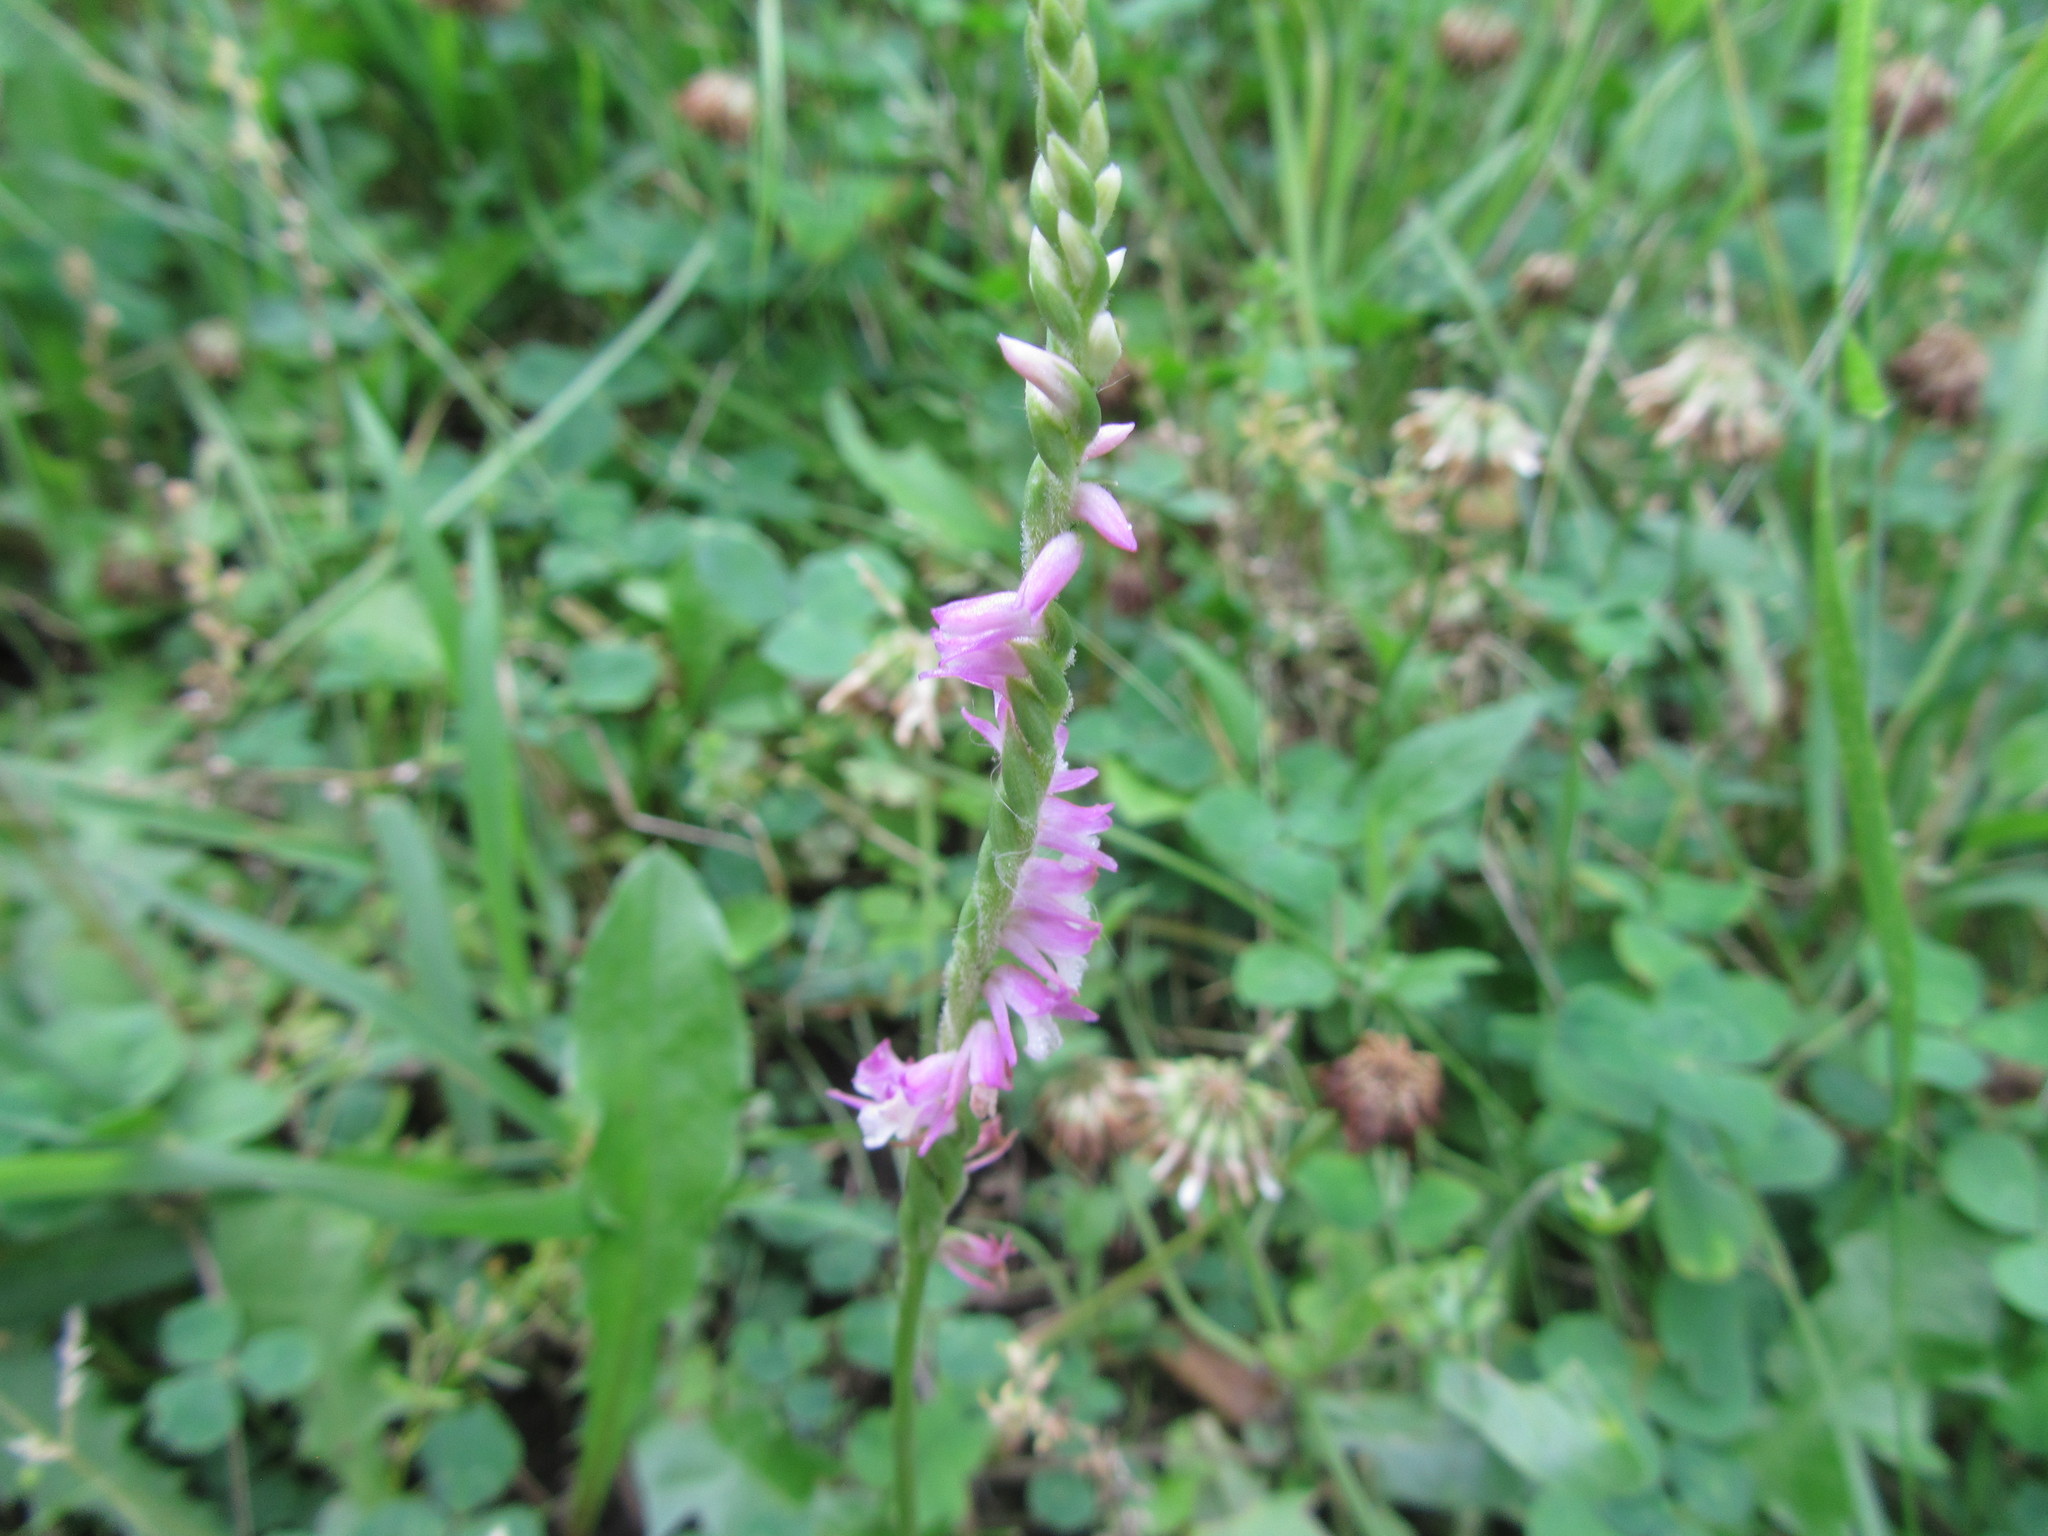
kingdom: Plantae
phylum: Tracheophyta
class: Liliopsida
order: Asparagales
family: Orchidaceae
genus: Spiranthes
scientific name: Spiranthes australis
